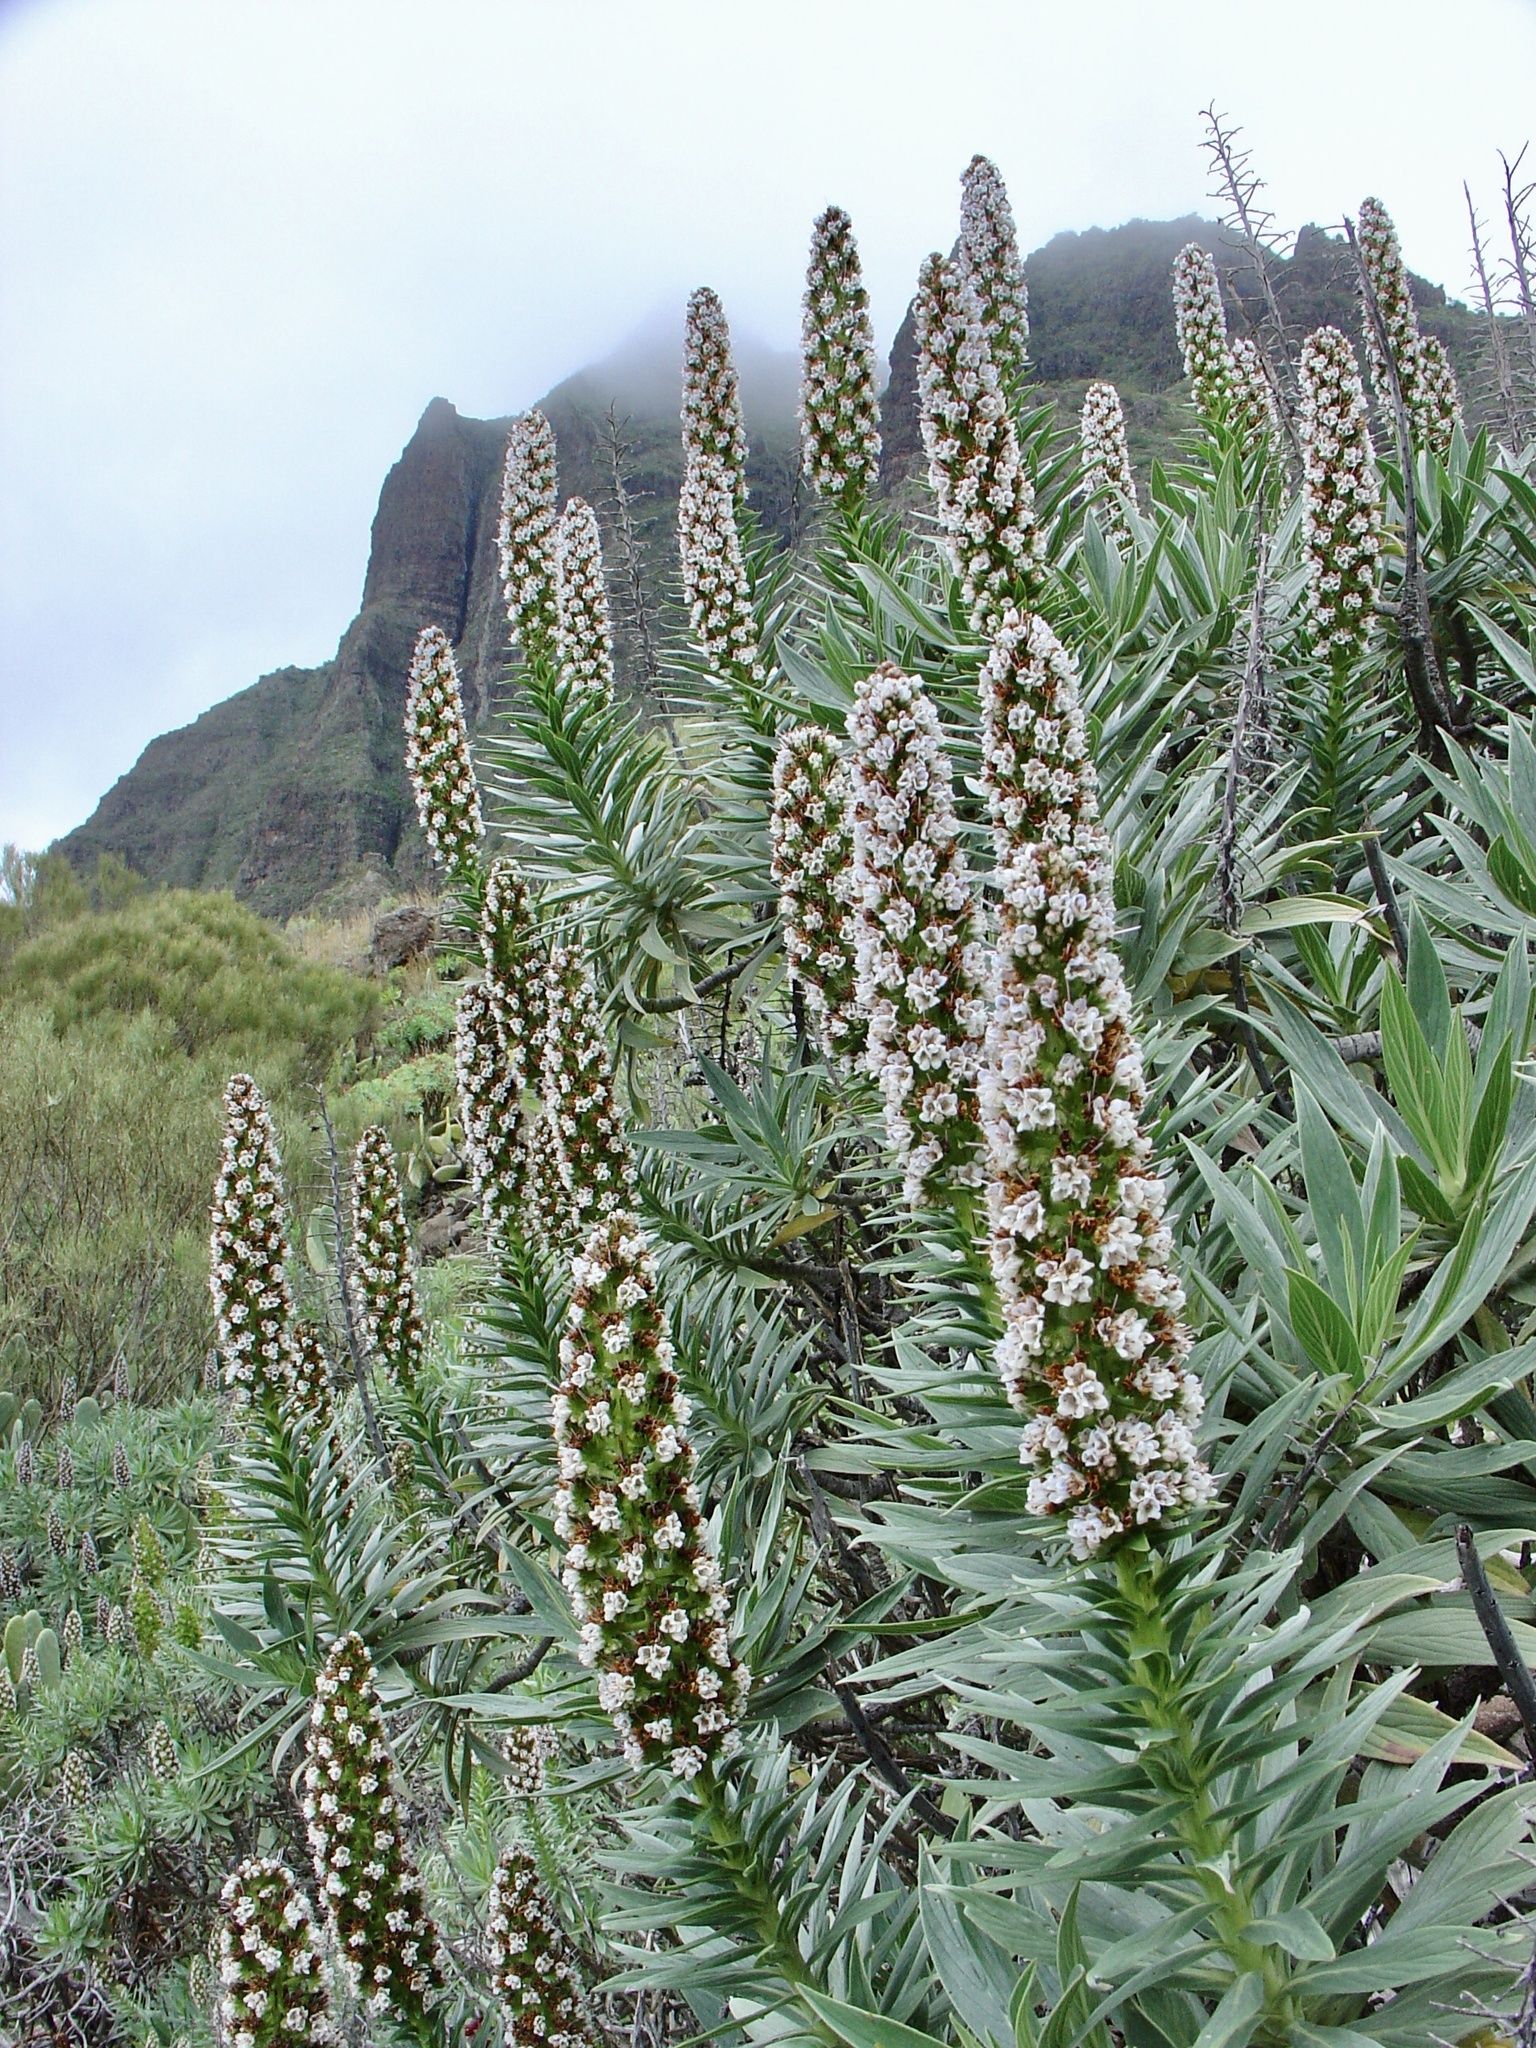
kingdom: Plantae
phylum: Tracheophyta
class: Magnoliopsida
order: Boraginales
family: Boraginaceae
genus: Echium
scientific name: Echium virescens
